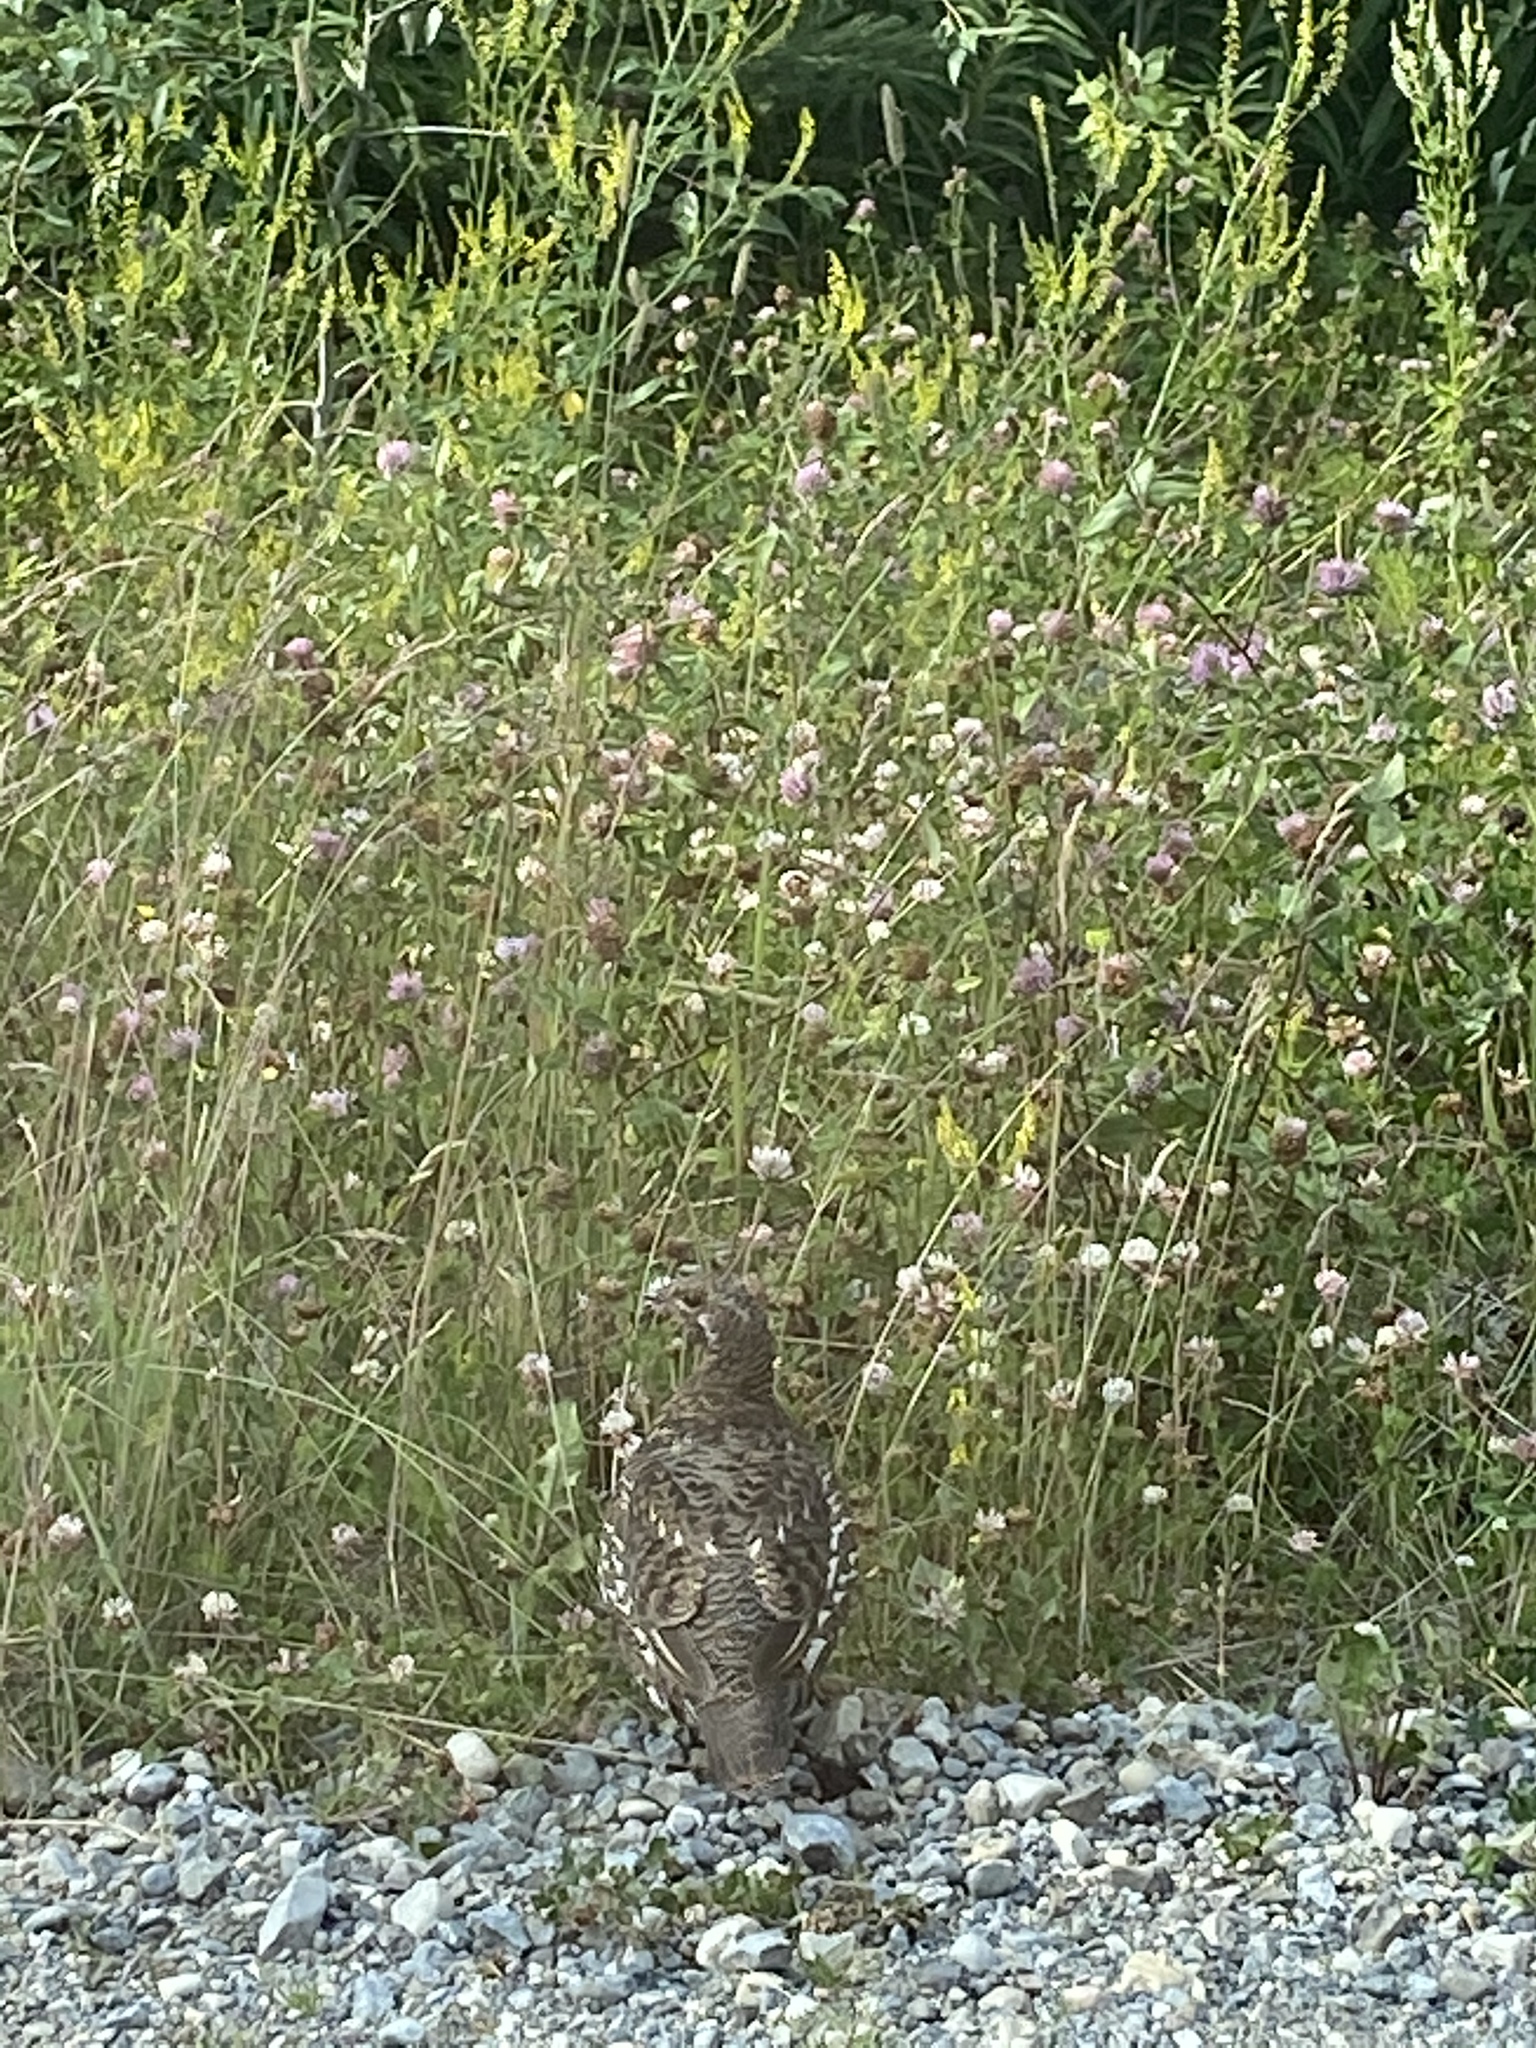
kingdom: Animalia
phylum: Chordata
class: Aves
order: Galliformes
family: Phasianidae
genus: Canachites
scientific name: Canachites canadensis
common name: Spruce grouse
